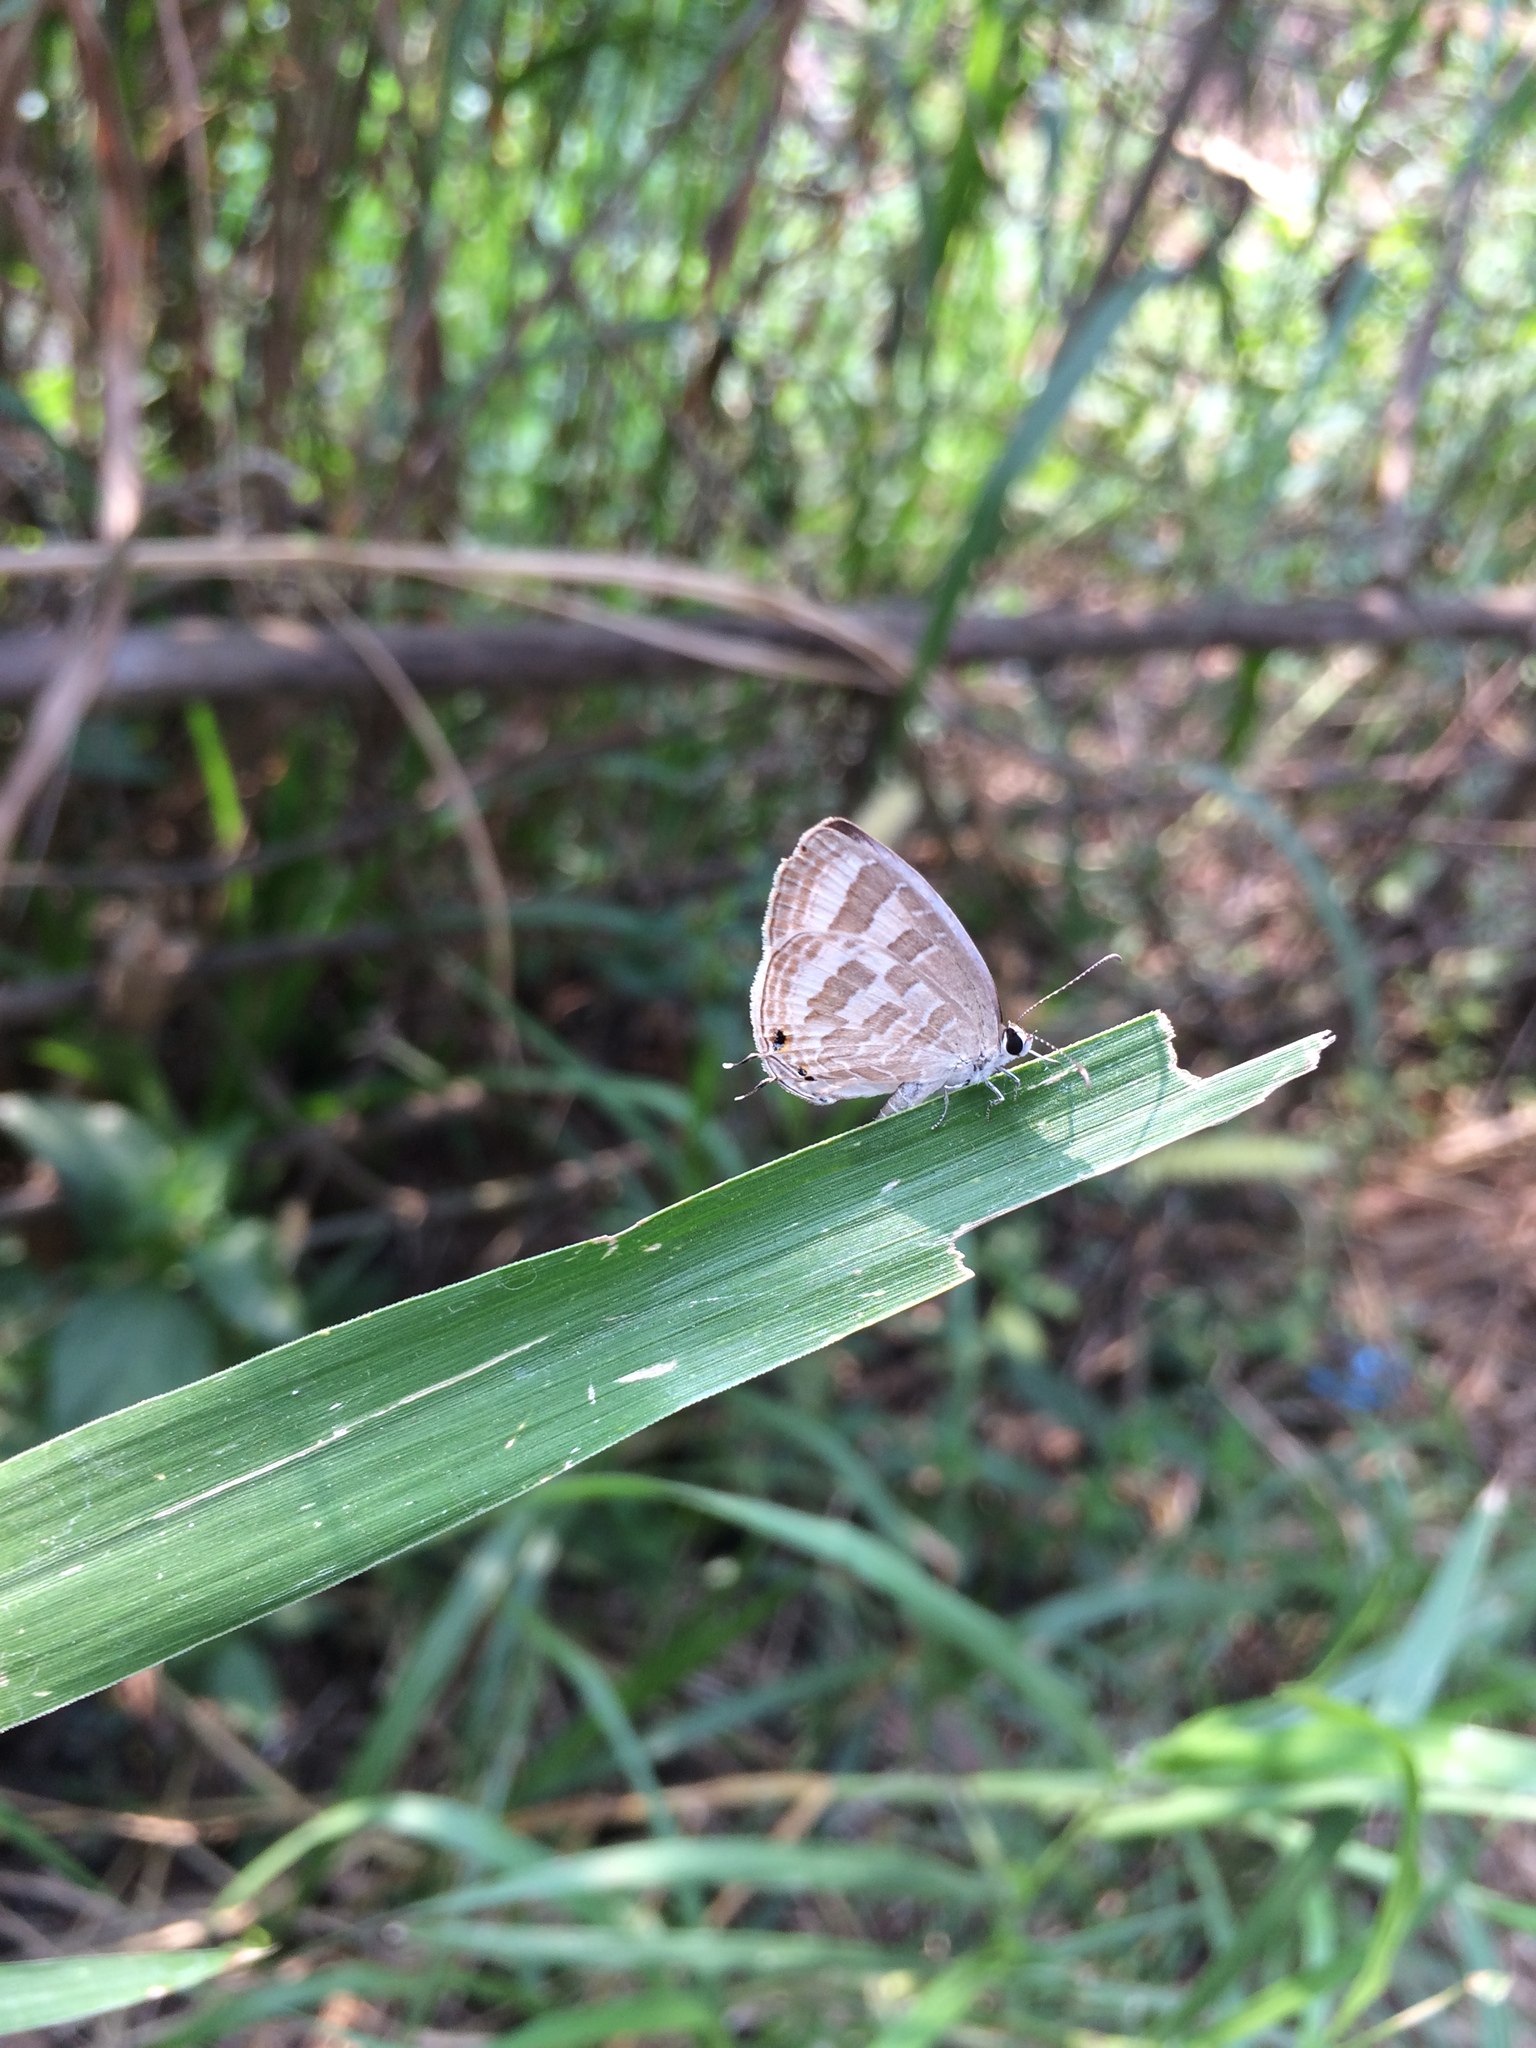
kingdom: Animalia
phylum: Arthropoda
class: Insecta
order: Lepidoptera
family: Lycaenidae
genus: Jamides
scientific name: Jamides celeno
